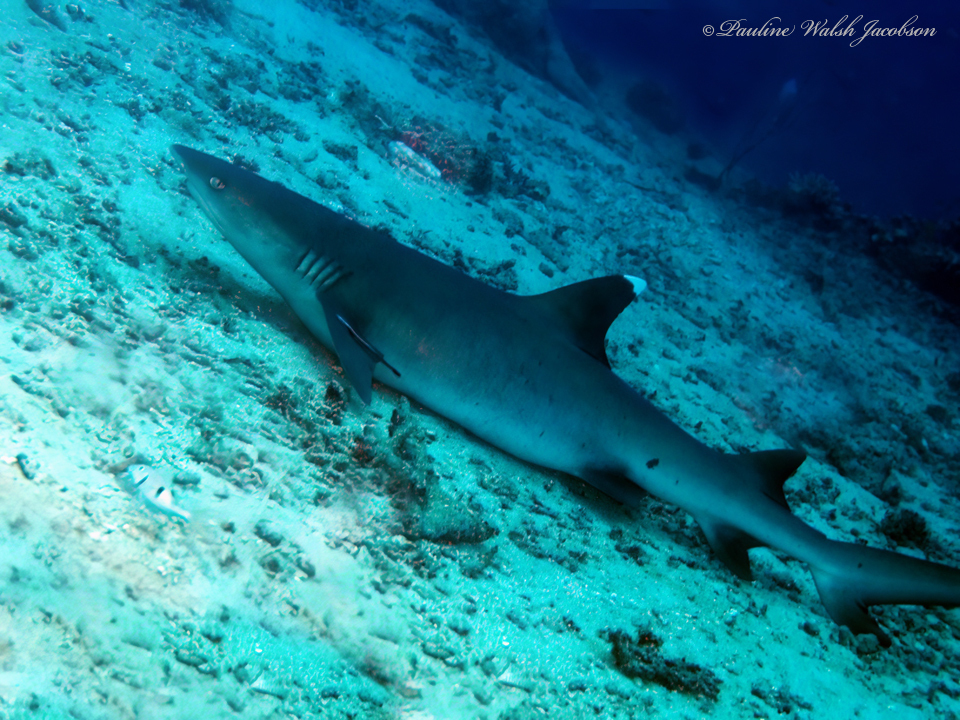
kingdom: Animalia
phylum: Chordata
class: Elasmobranchii
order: Carcharhiniformes
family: Carcharhinidae
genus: Triaenodon
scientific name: Triaenodon obesus
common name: Whitetip reef shark
